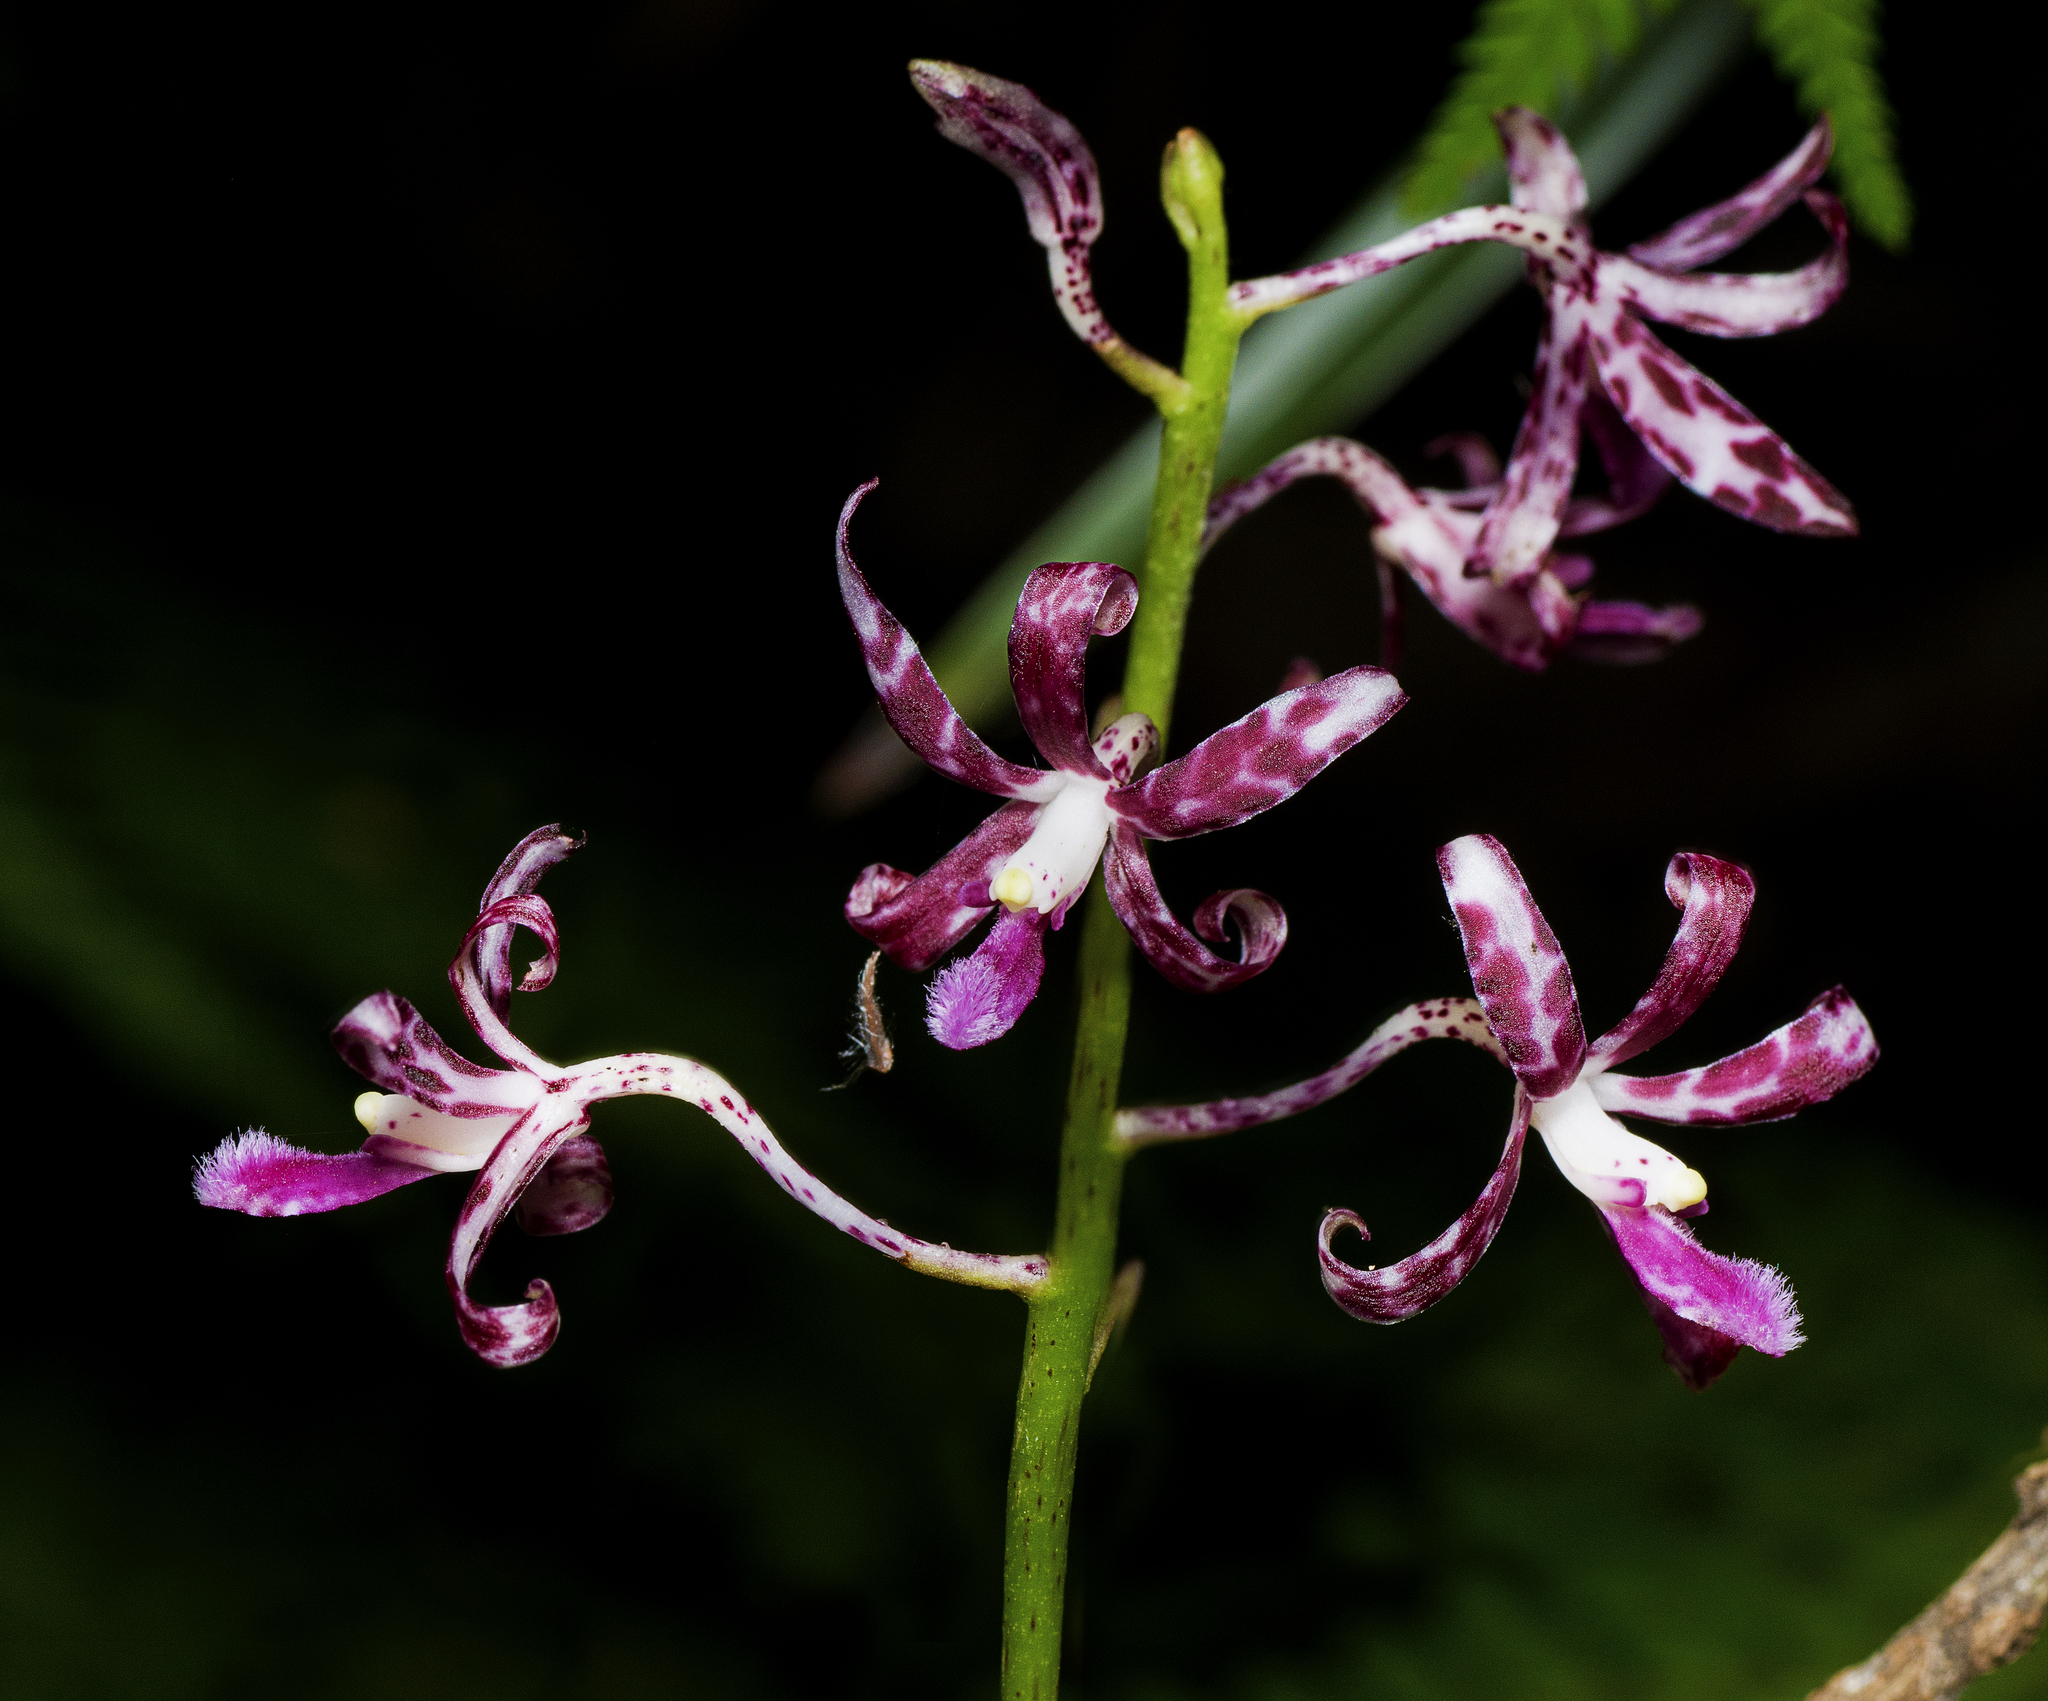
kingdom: Plantae
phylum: Tracheophyta
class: Liliopsida
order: Asparagales
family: Orchidaceae
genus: Dipodium
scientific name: Dipodium variegatum
